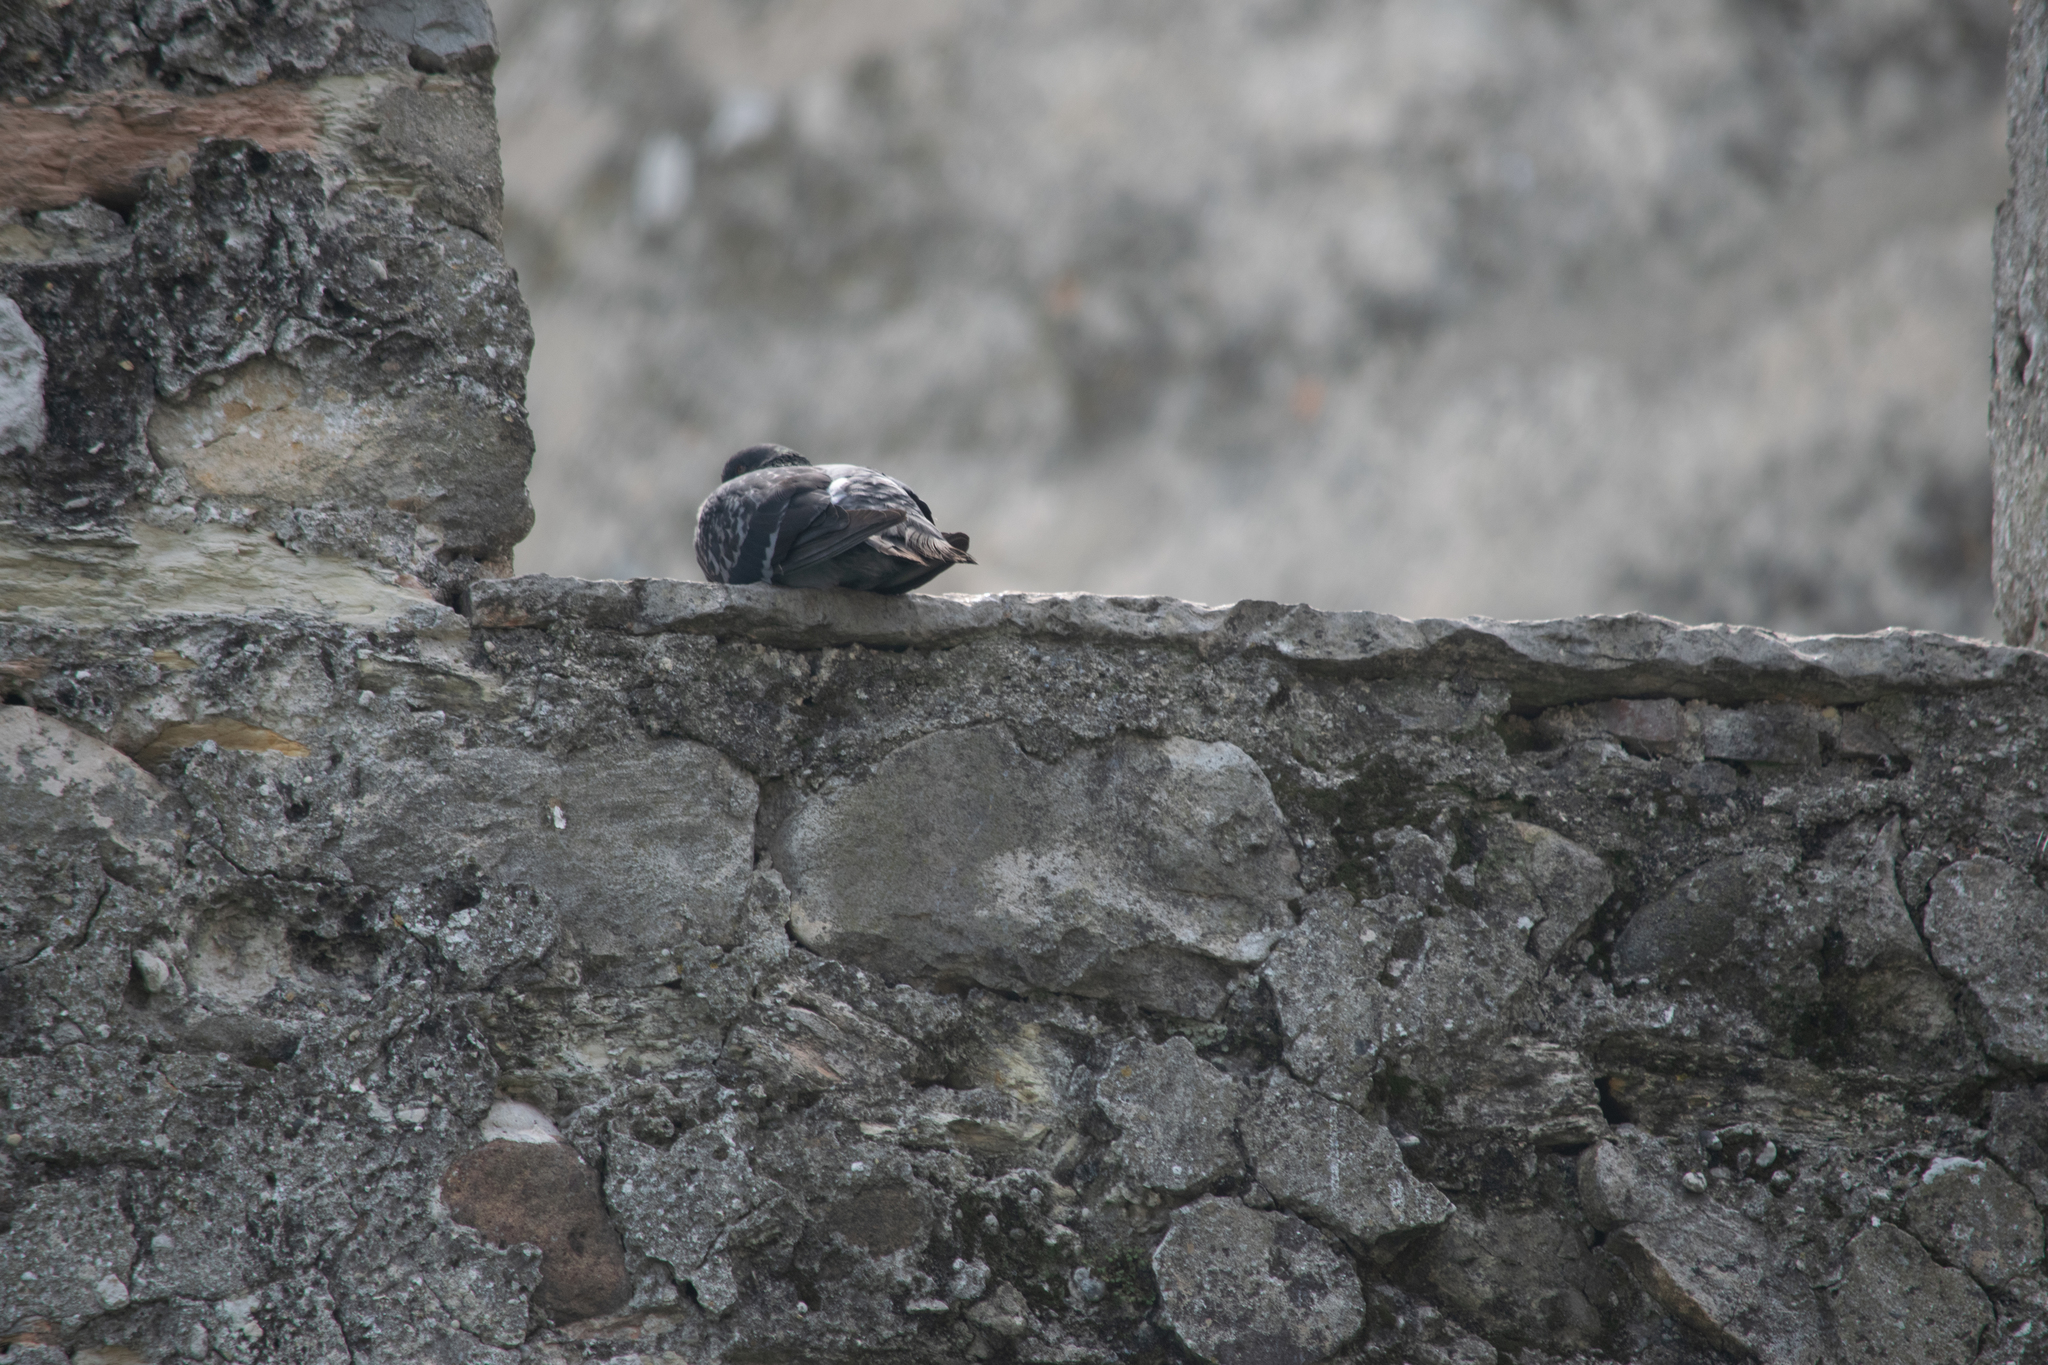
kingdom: Animalia
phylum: Chordata
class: Aves
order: Columbiformes
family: Columbidae
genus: Columba
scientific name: Columba livia
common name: Rock pigeon
